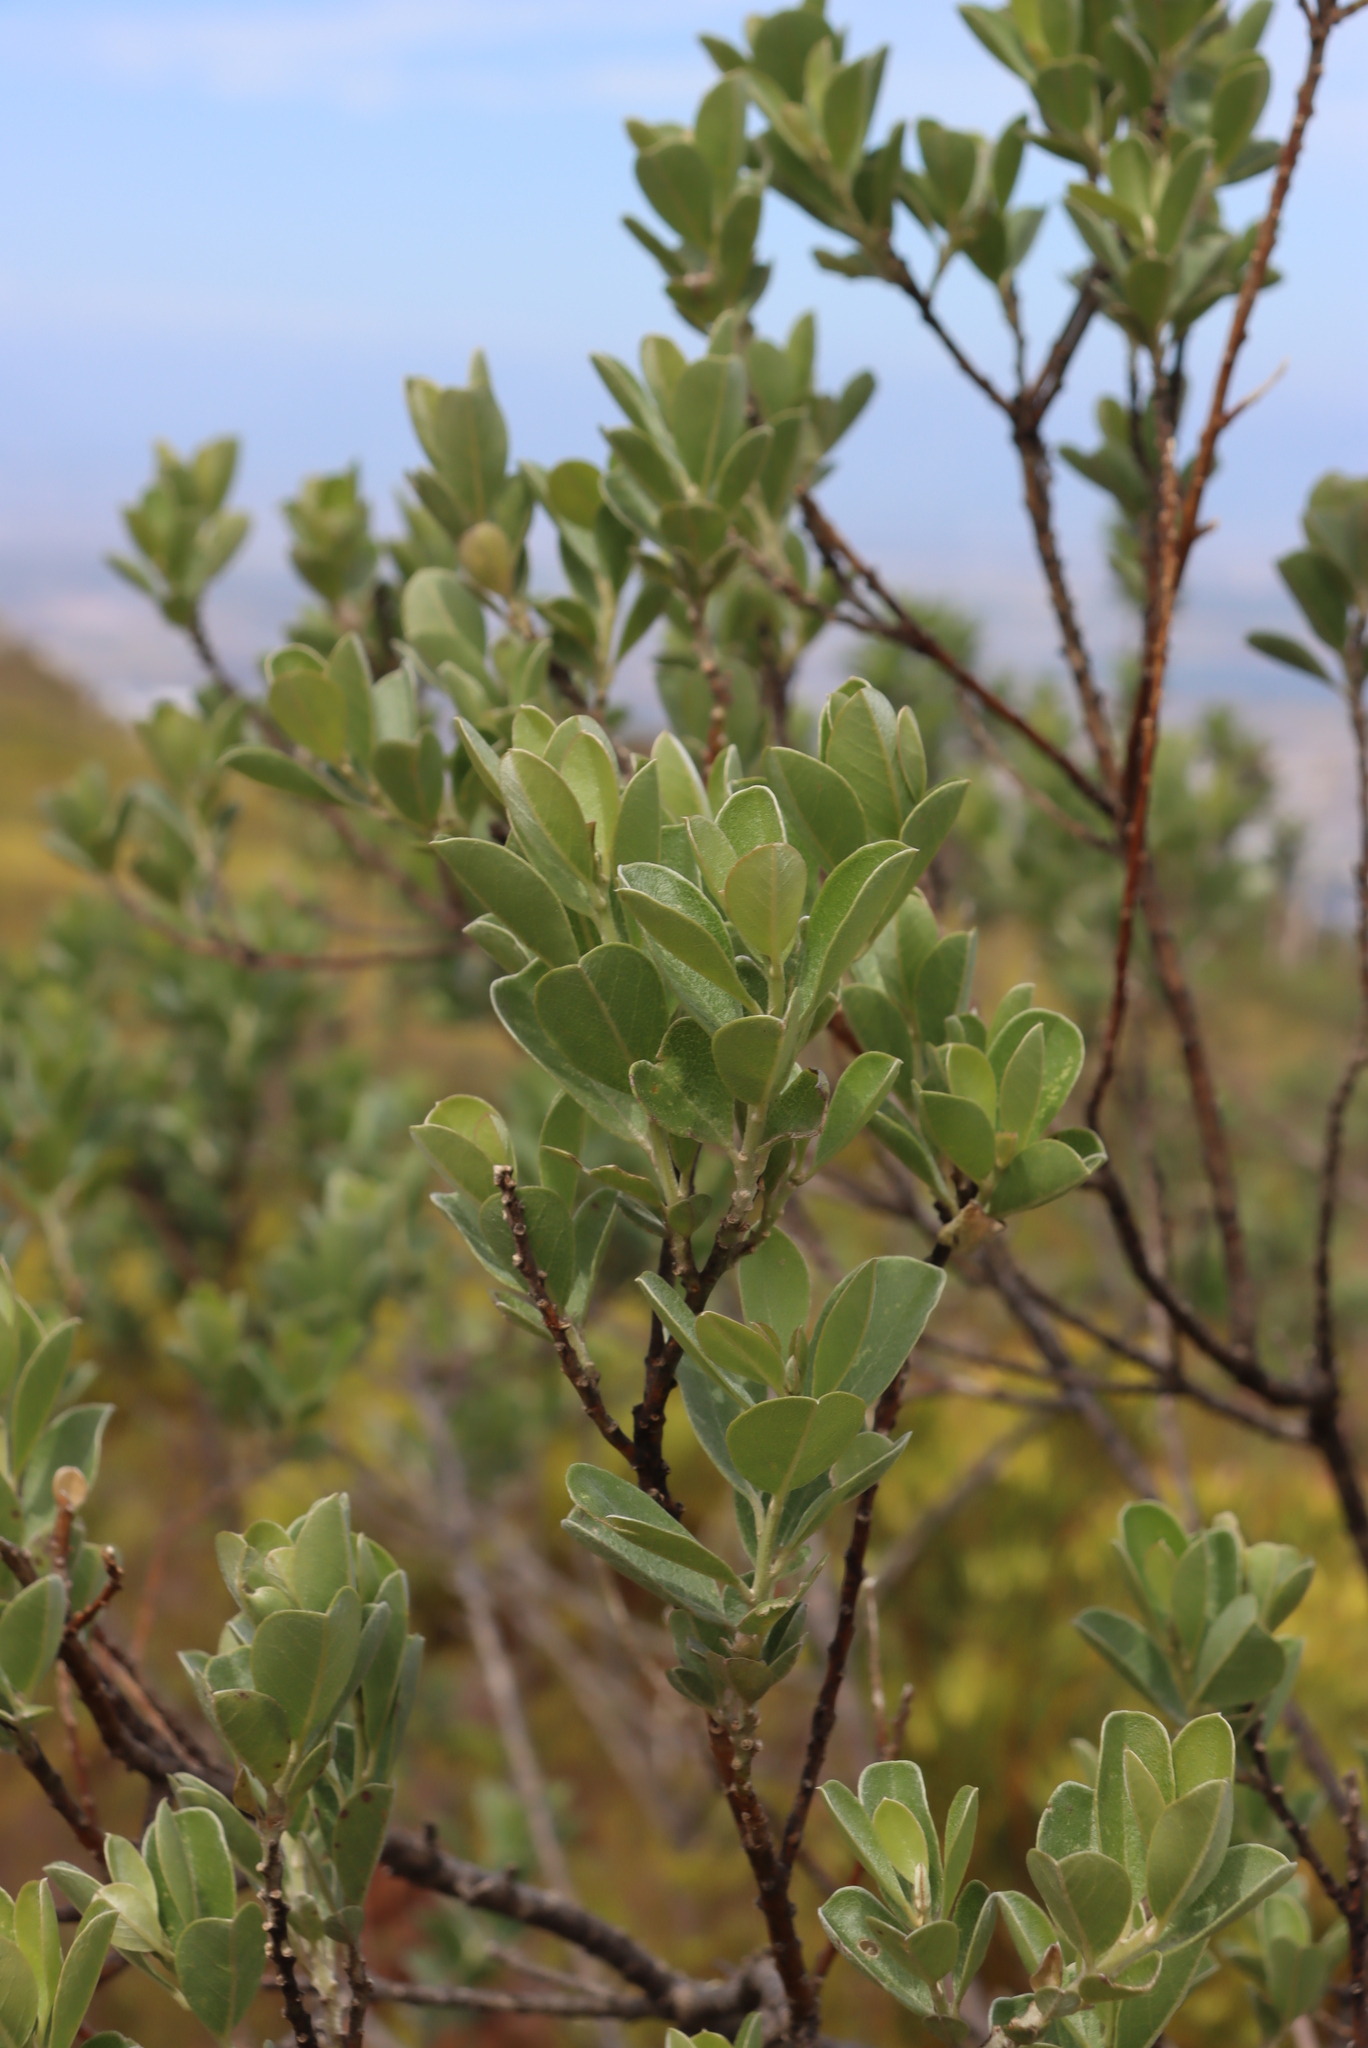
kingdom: Plantae
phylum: Tracheophyta
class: Magnoliopsida
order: Fabales
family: Fabaceae
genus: Podalyria
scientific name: Podalyria calyptrata
